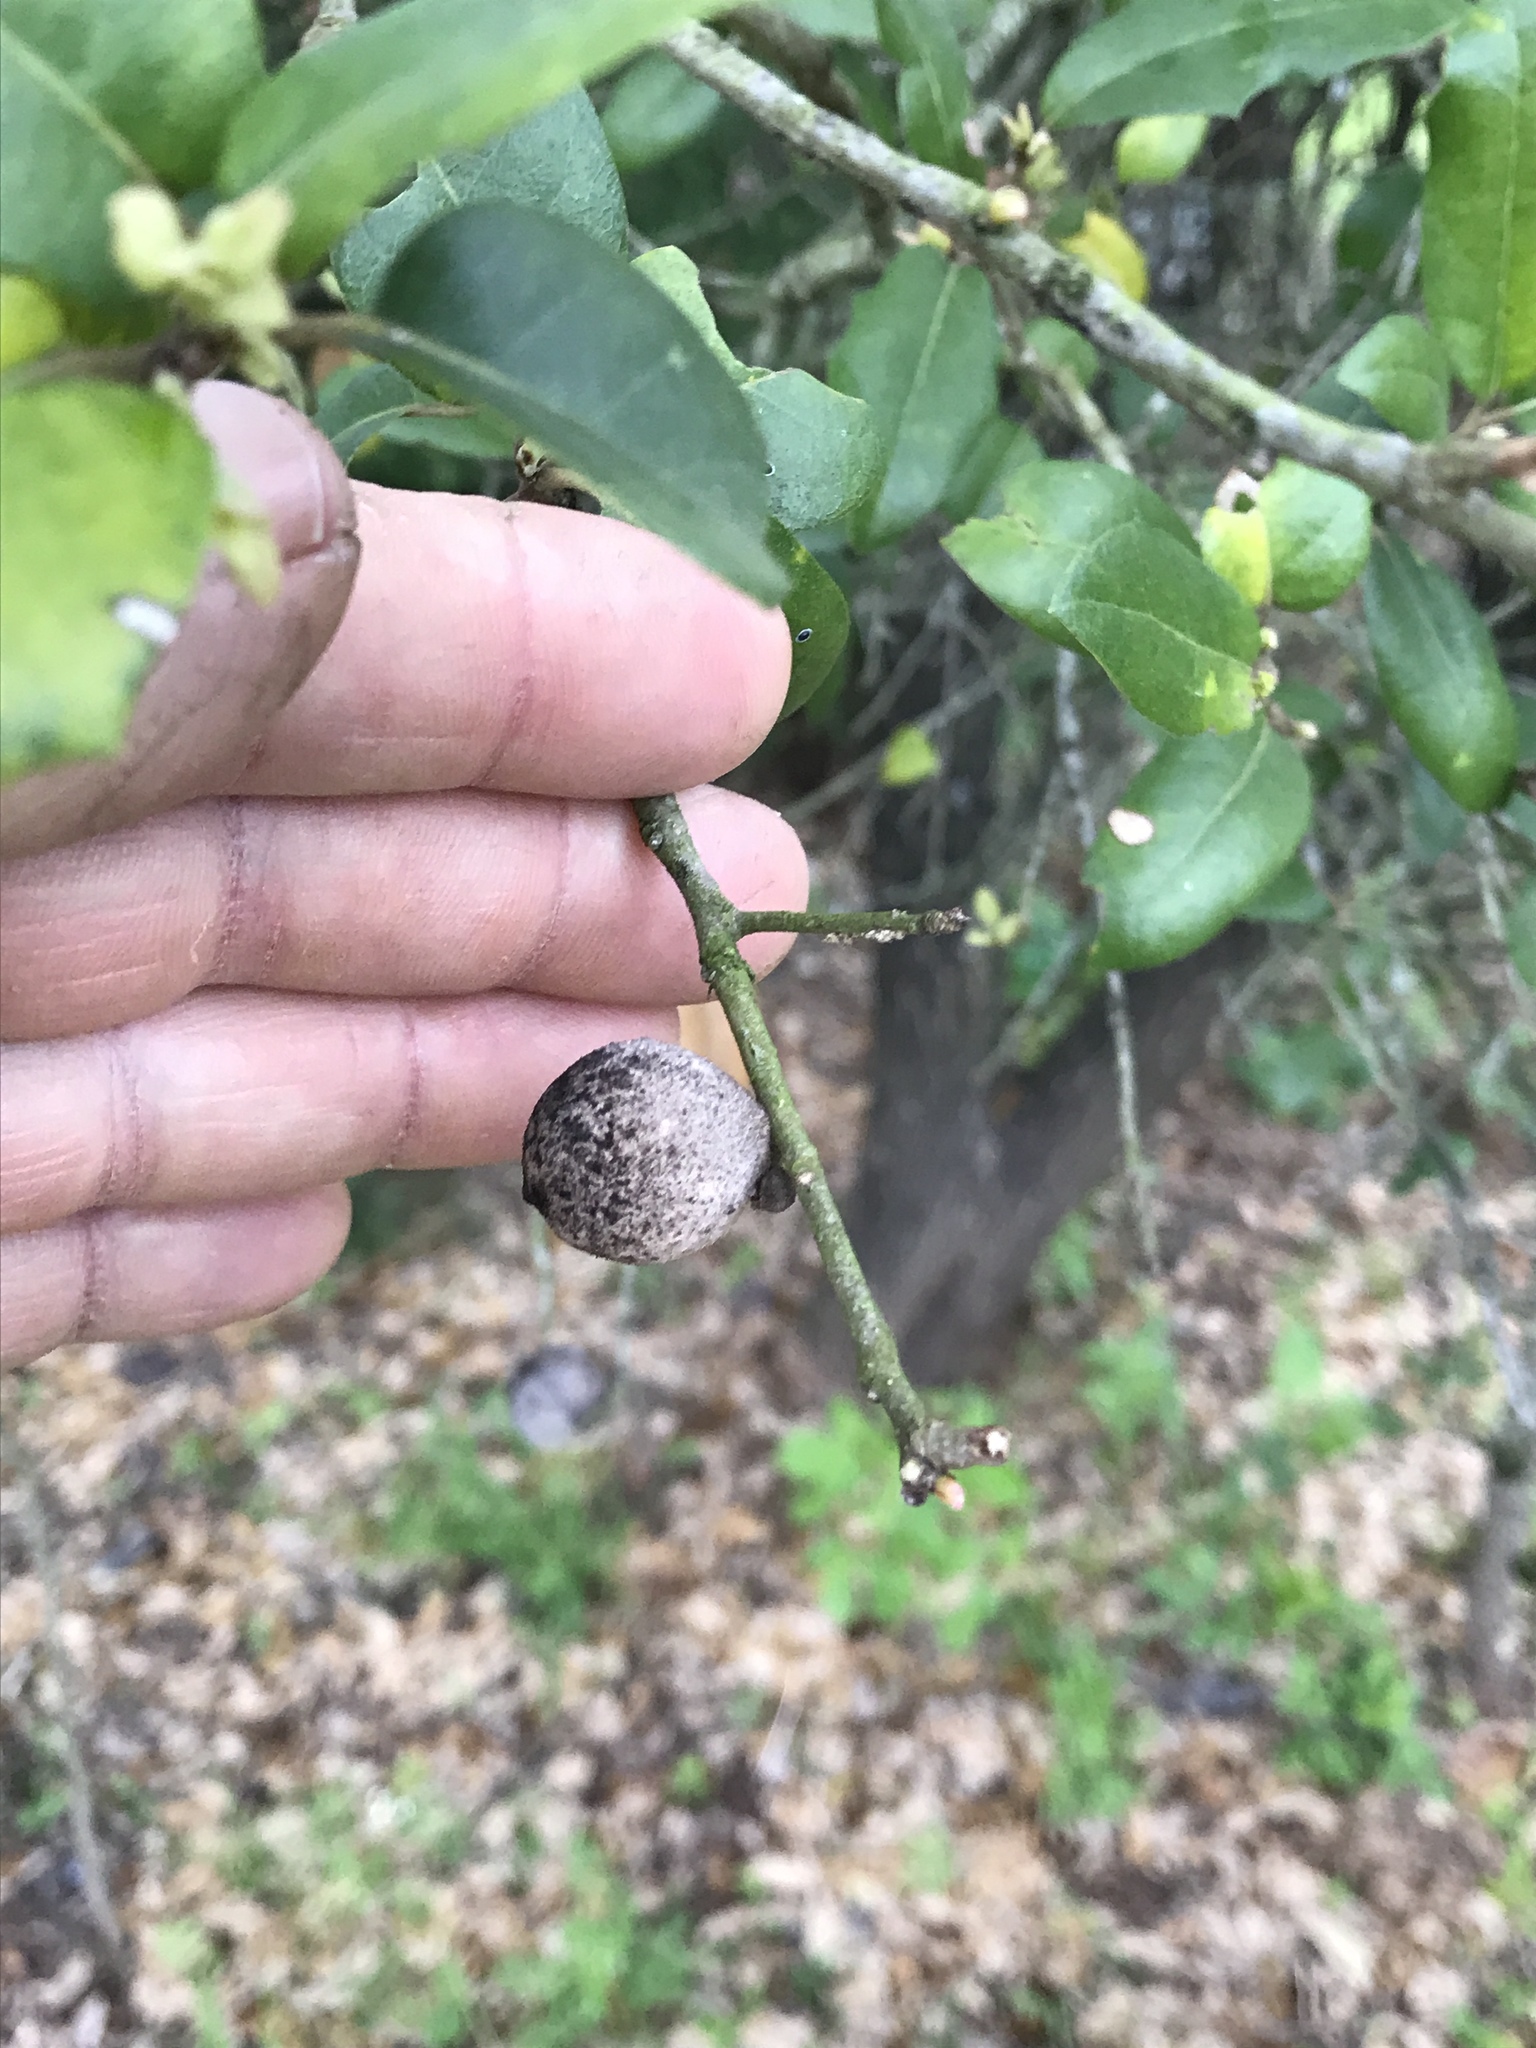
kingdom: Animalia
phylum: Arthropoda
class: Insecta
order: Hymenoptera
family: Cynipidae
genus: Disholcaspis
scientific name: Disholcaspis
